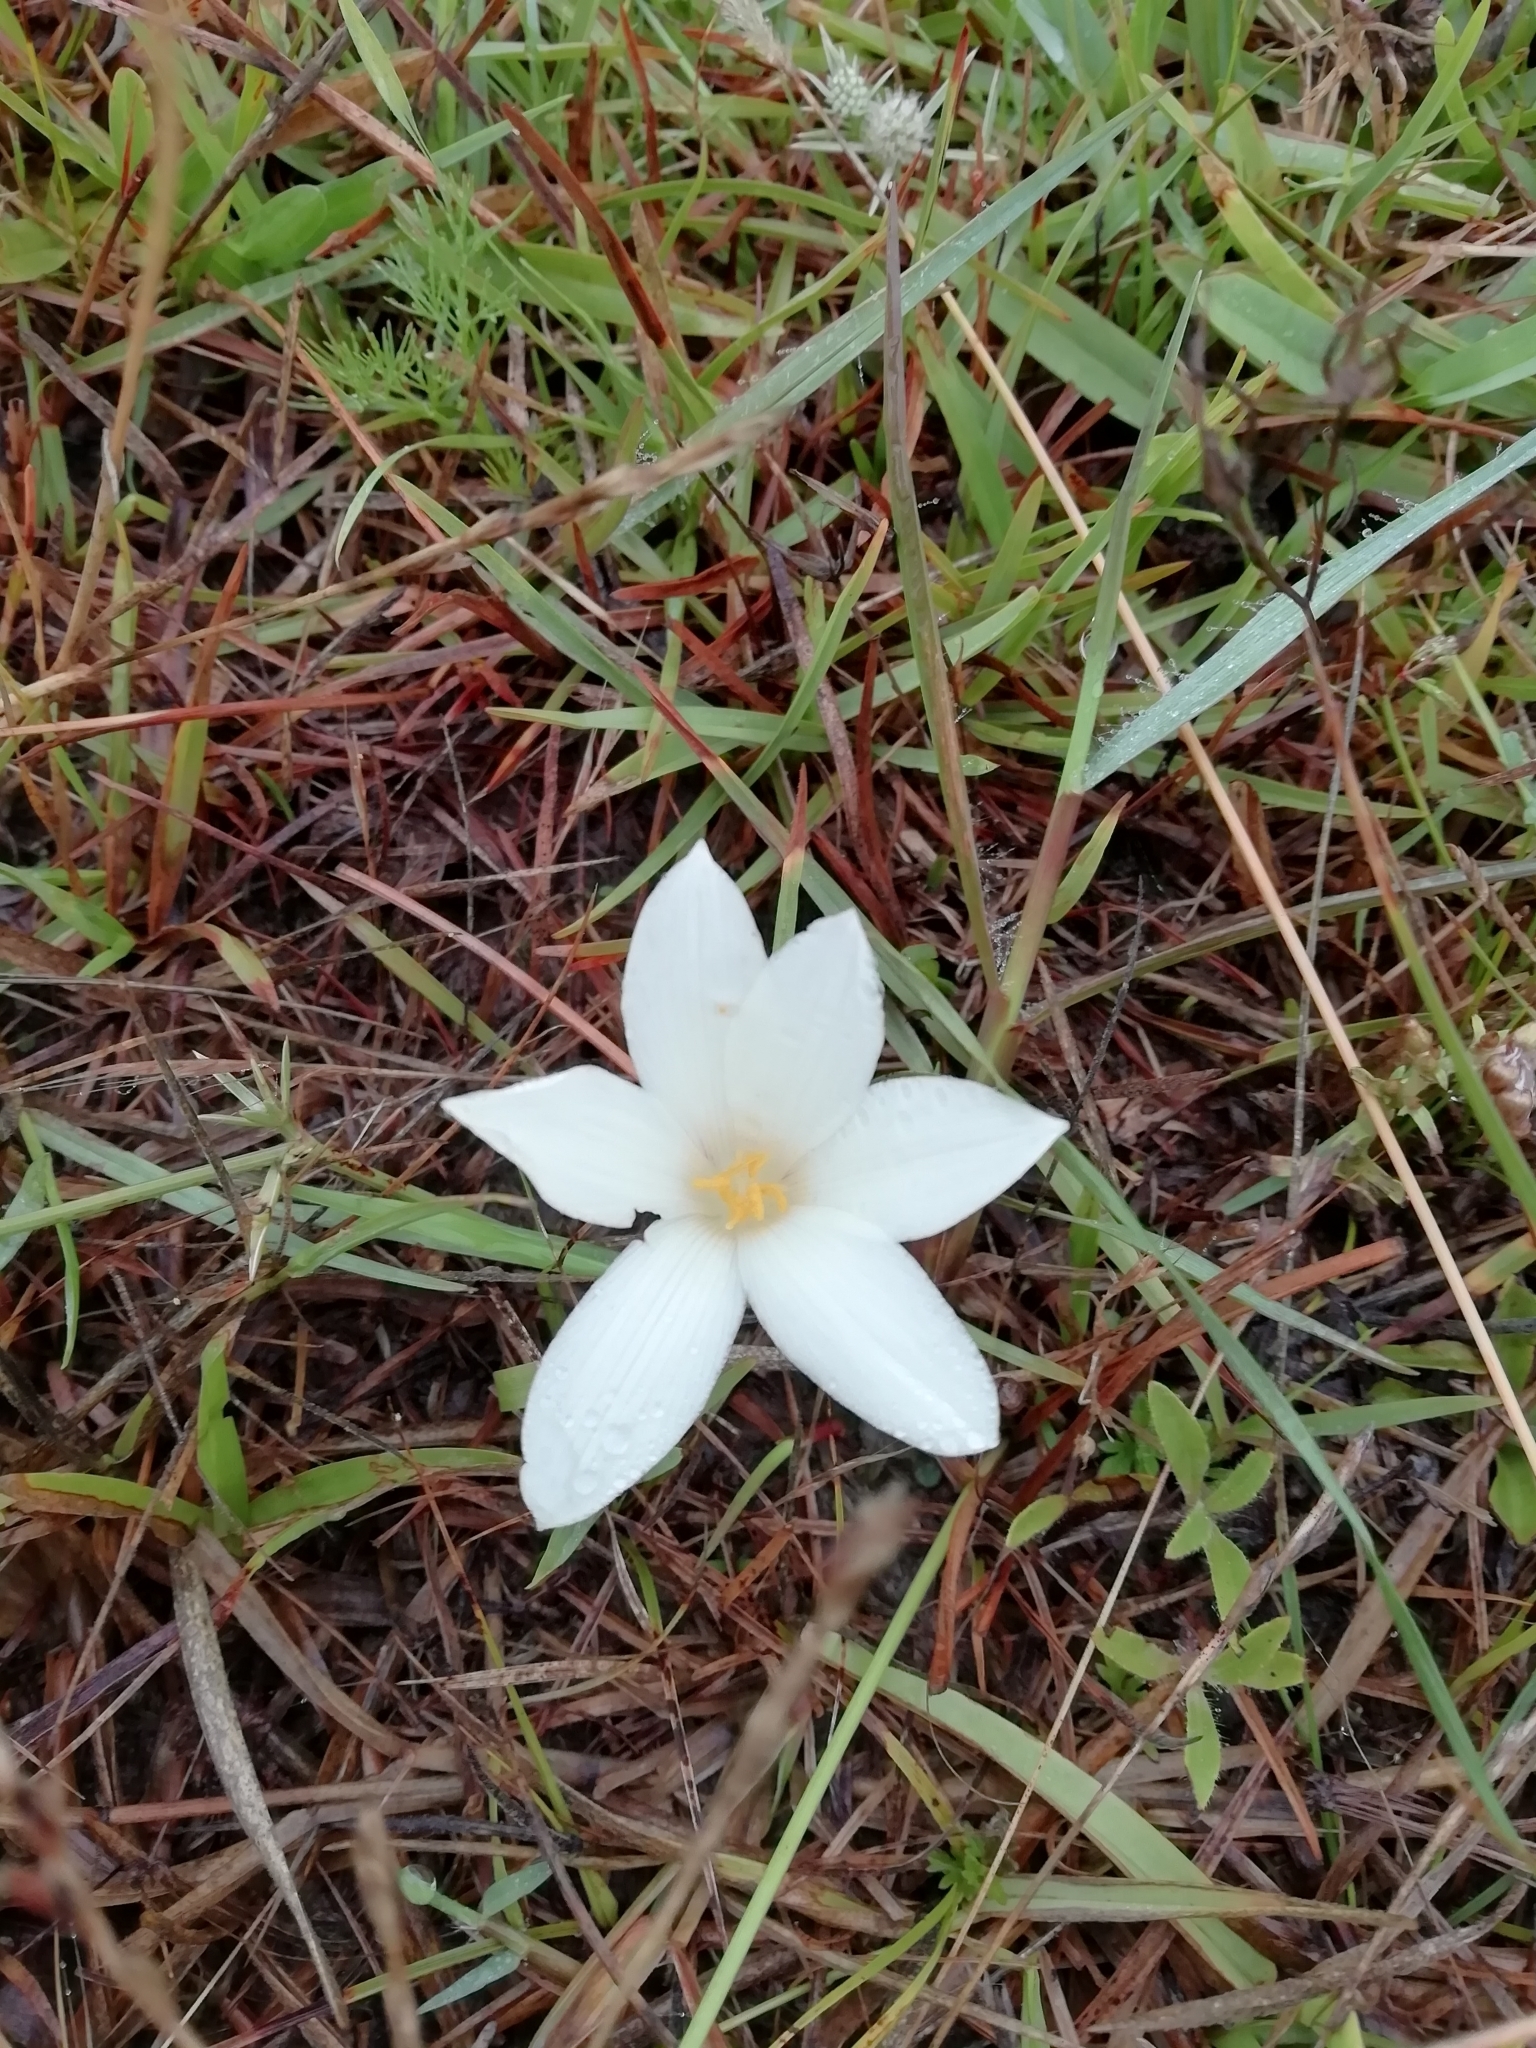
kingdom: Plantae
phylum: Tracheophyta
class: Liliopsida
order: Asparagales
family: Amaryllidaceae
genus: Zephyranthes
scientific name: Zephyranthes americana
